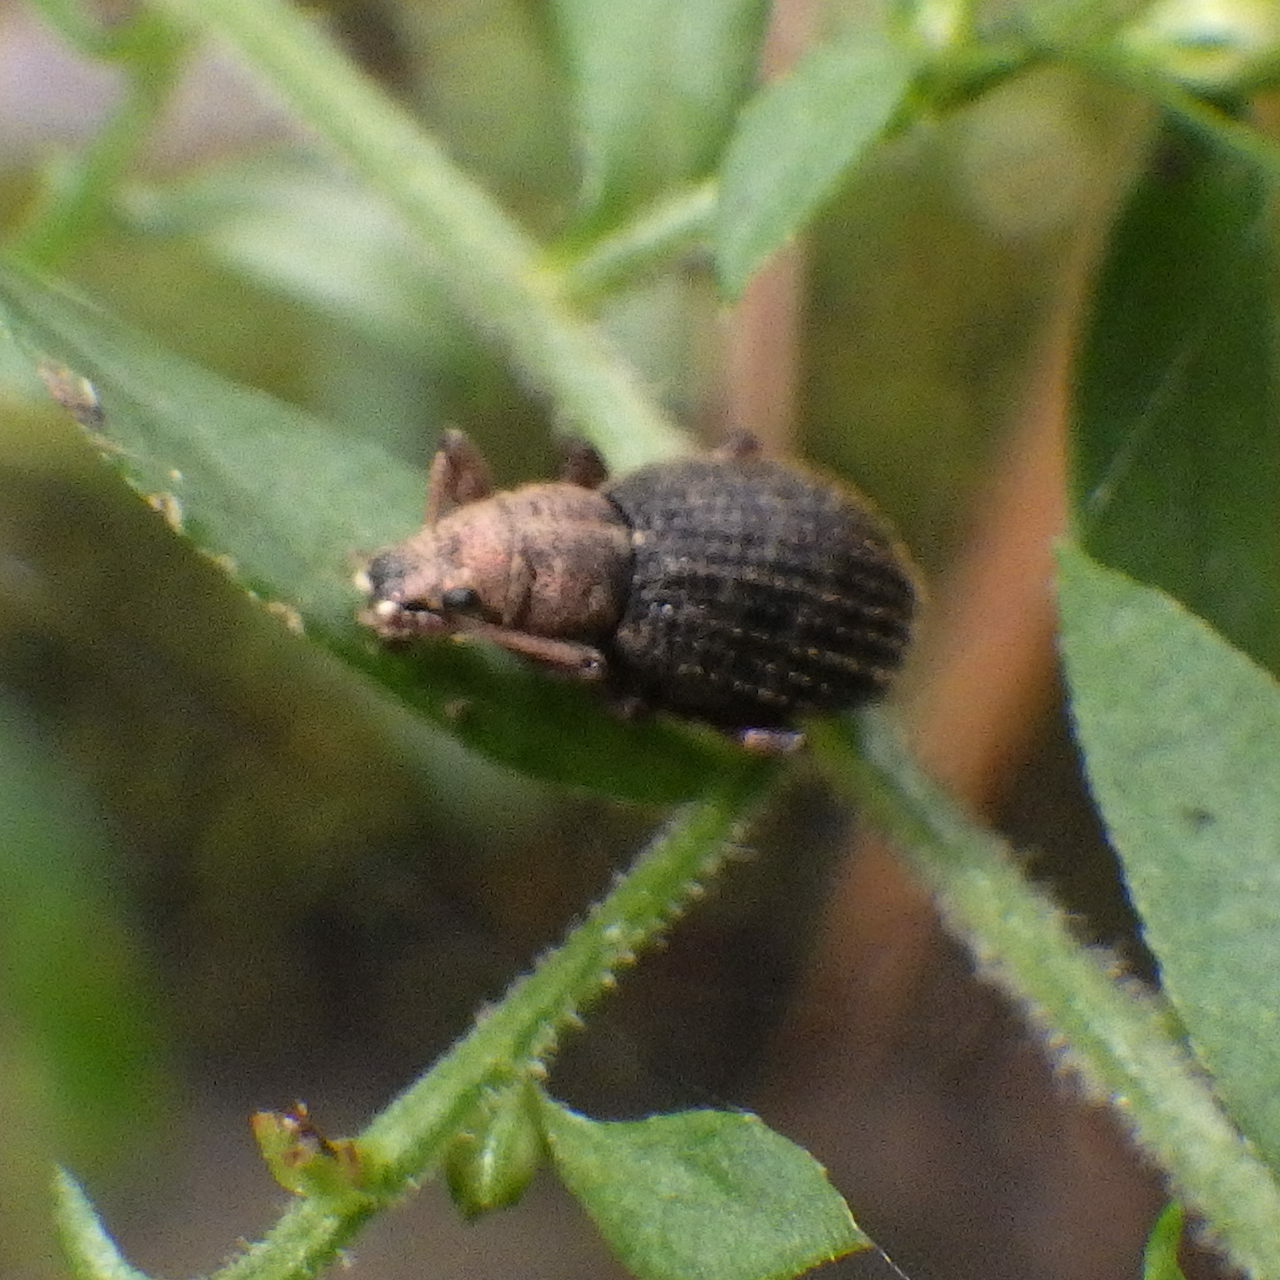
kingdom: Animalia
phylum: Arthropoda
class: Insecta
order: Coleoptera
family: Curculionidae
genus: Sciaphilus
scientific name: Sciaphilus asperatus
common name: Weevil
